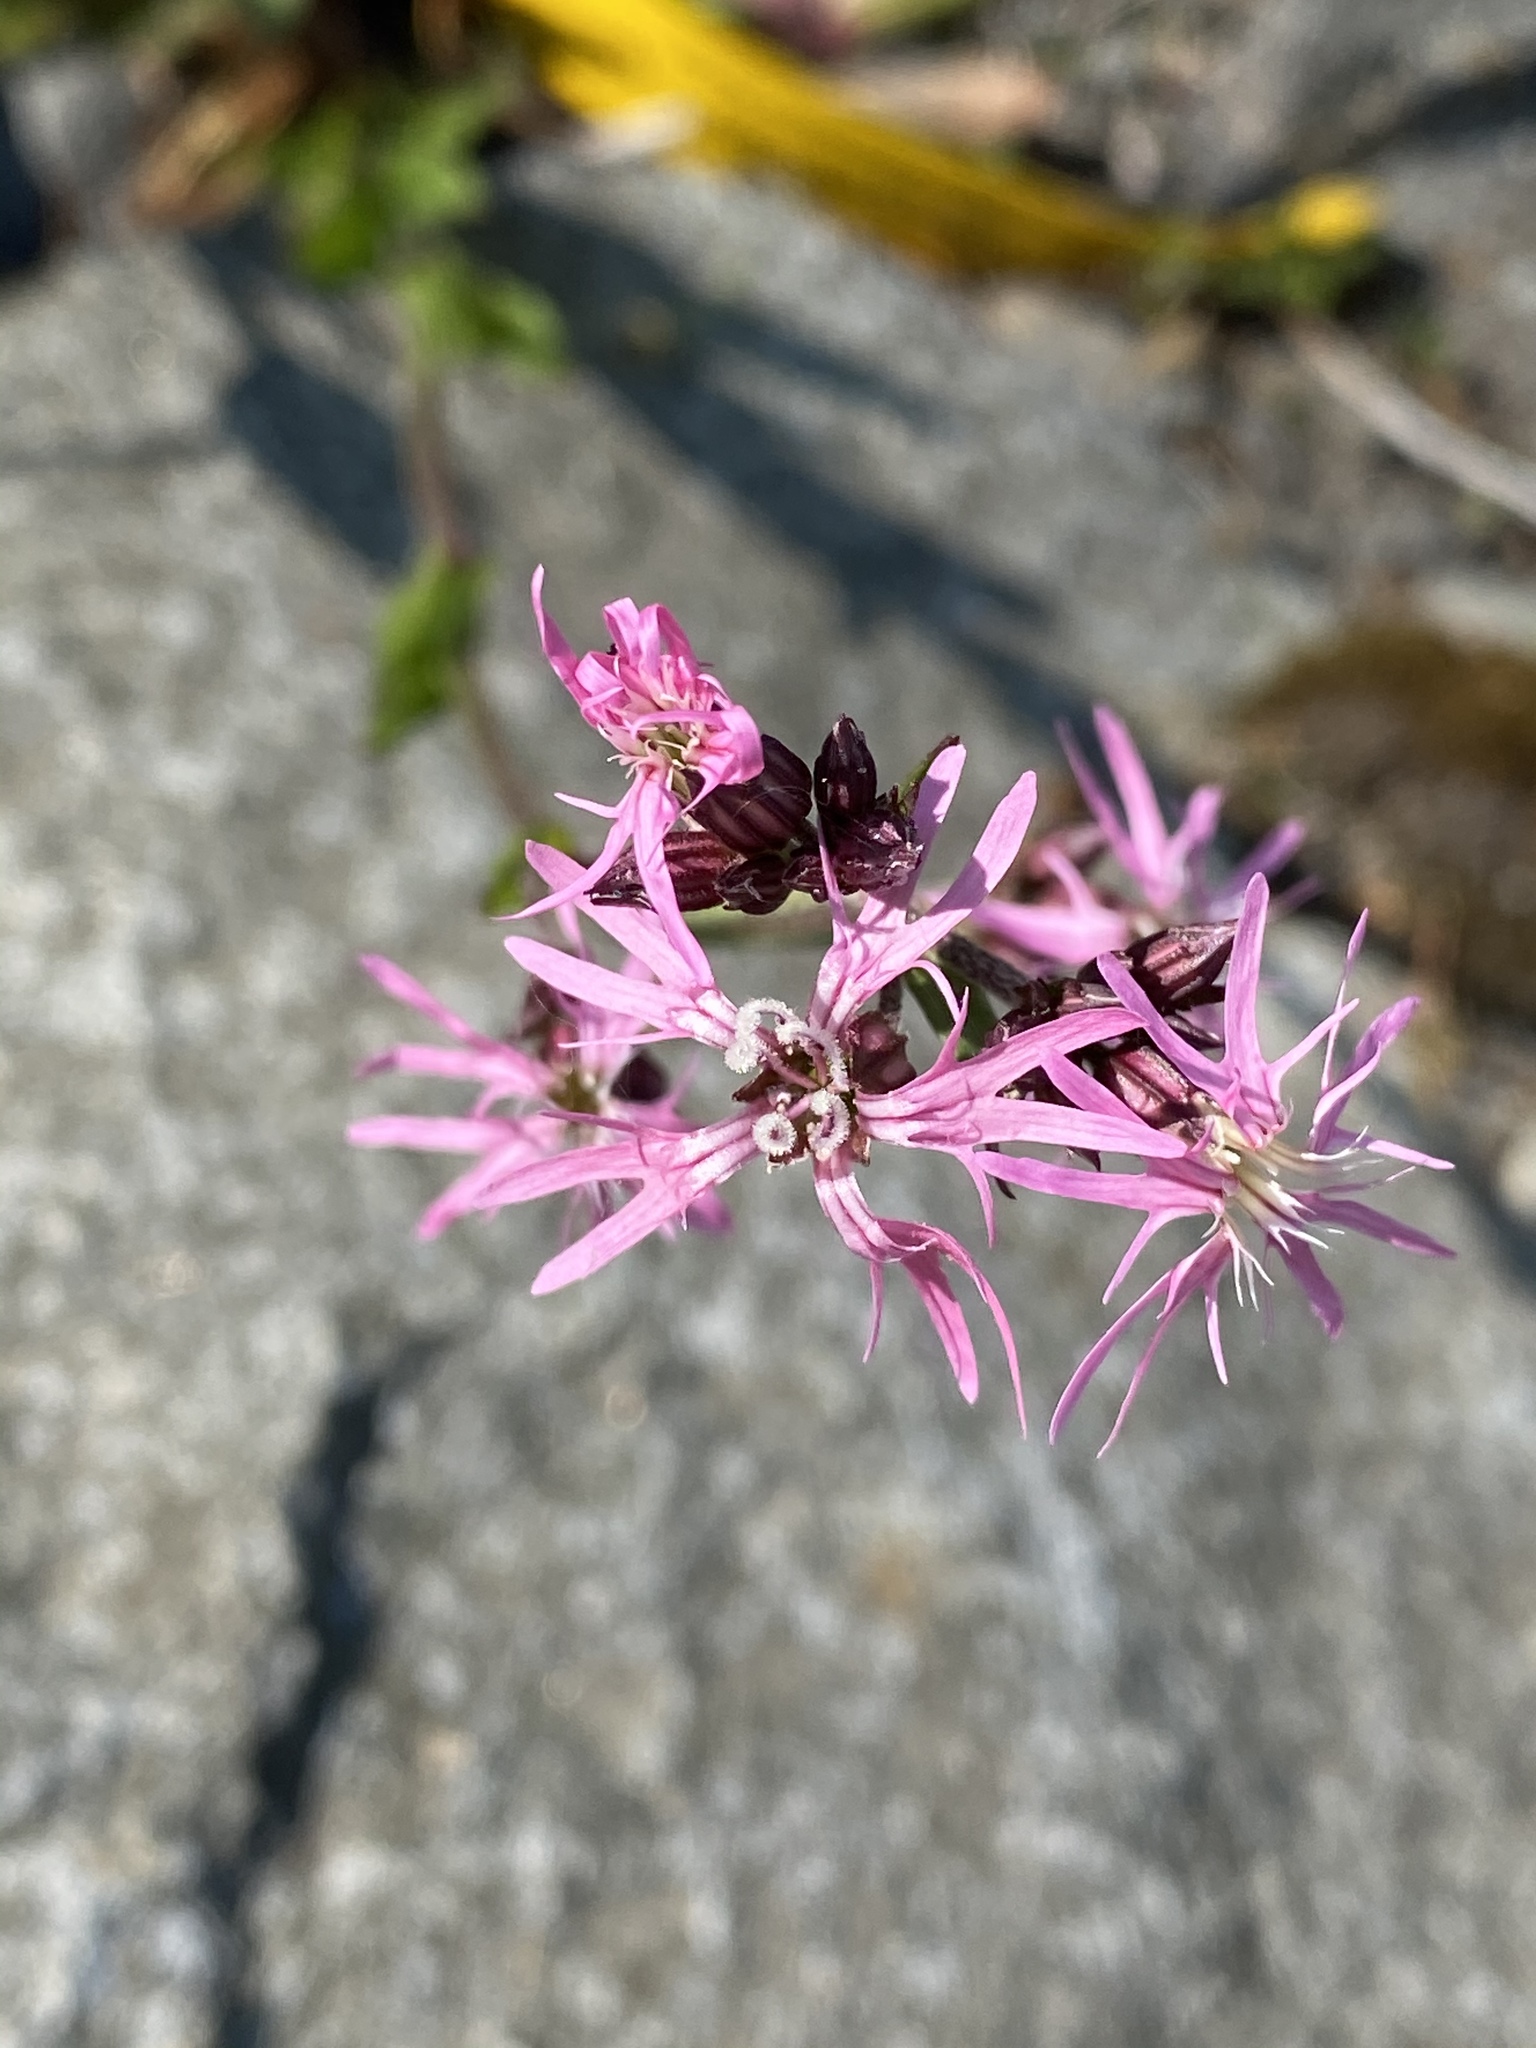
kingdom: Plantae
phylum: Tracheophyta
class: Magnoliopsida
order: Caryophyllales
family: Caryophyllaceae
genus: Silene
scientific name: Silene flos-cuculi
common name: Ragged-robin
